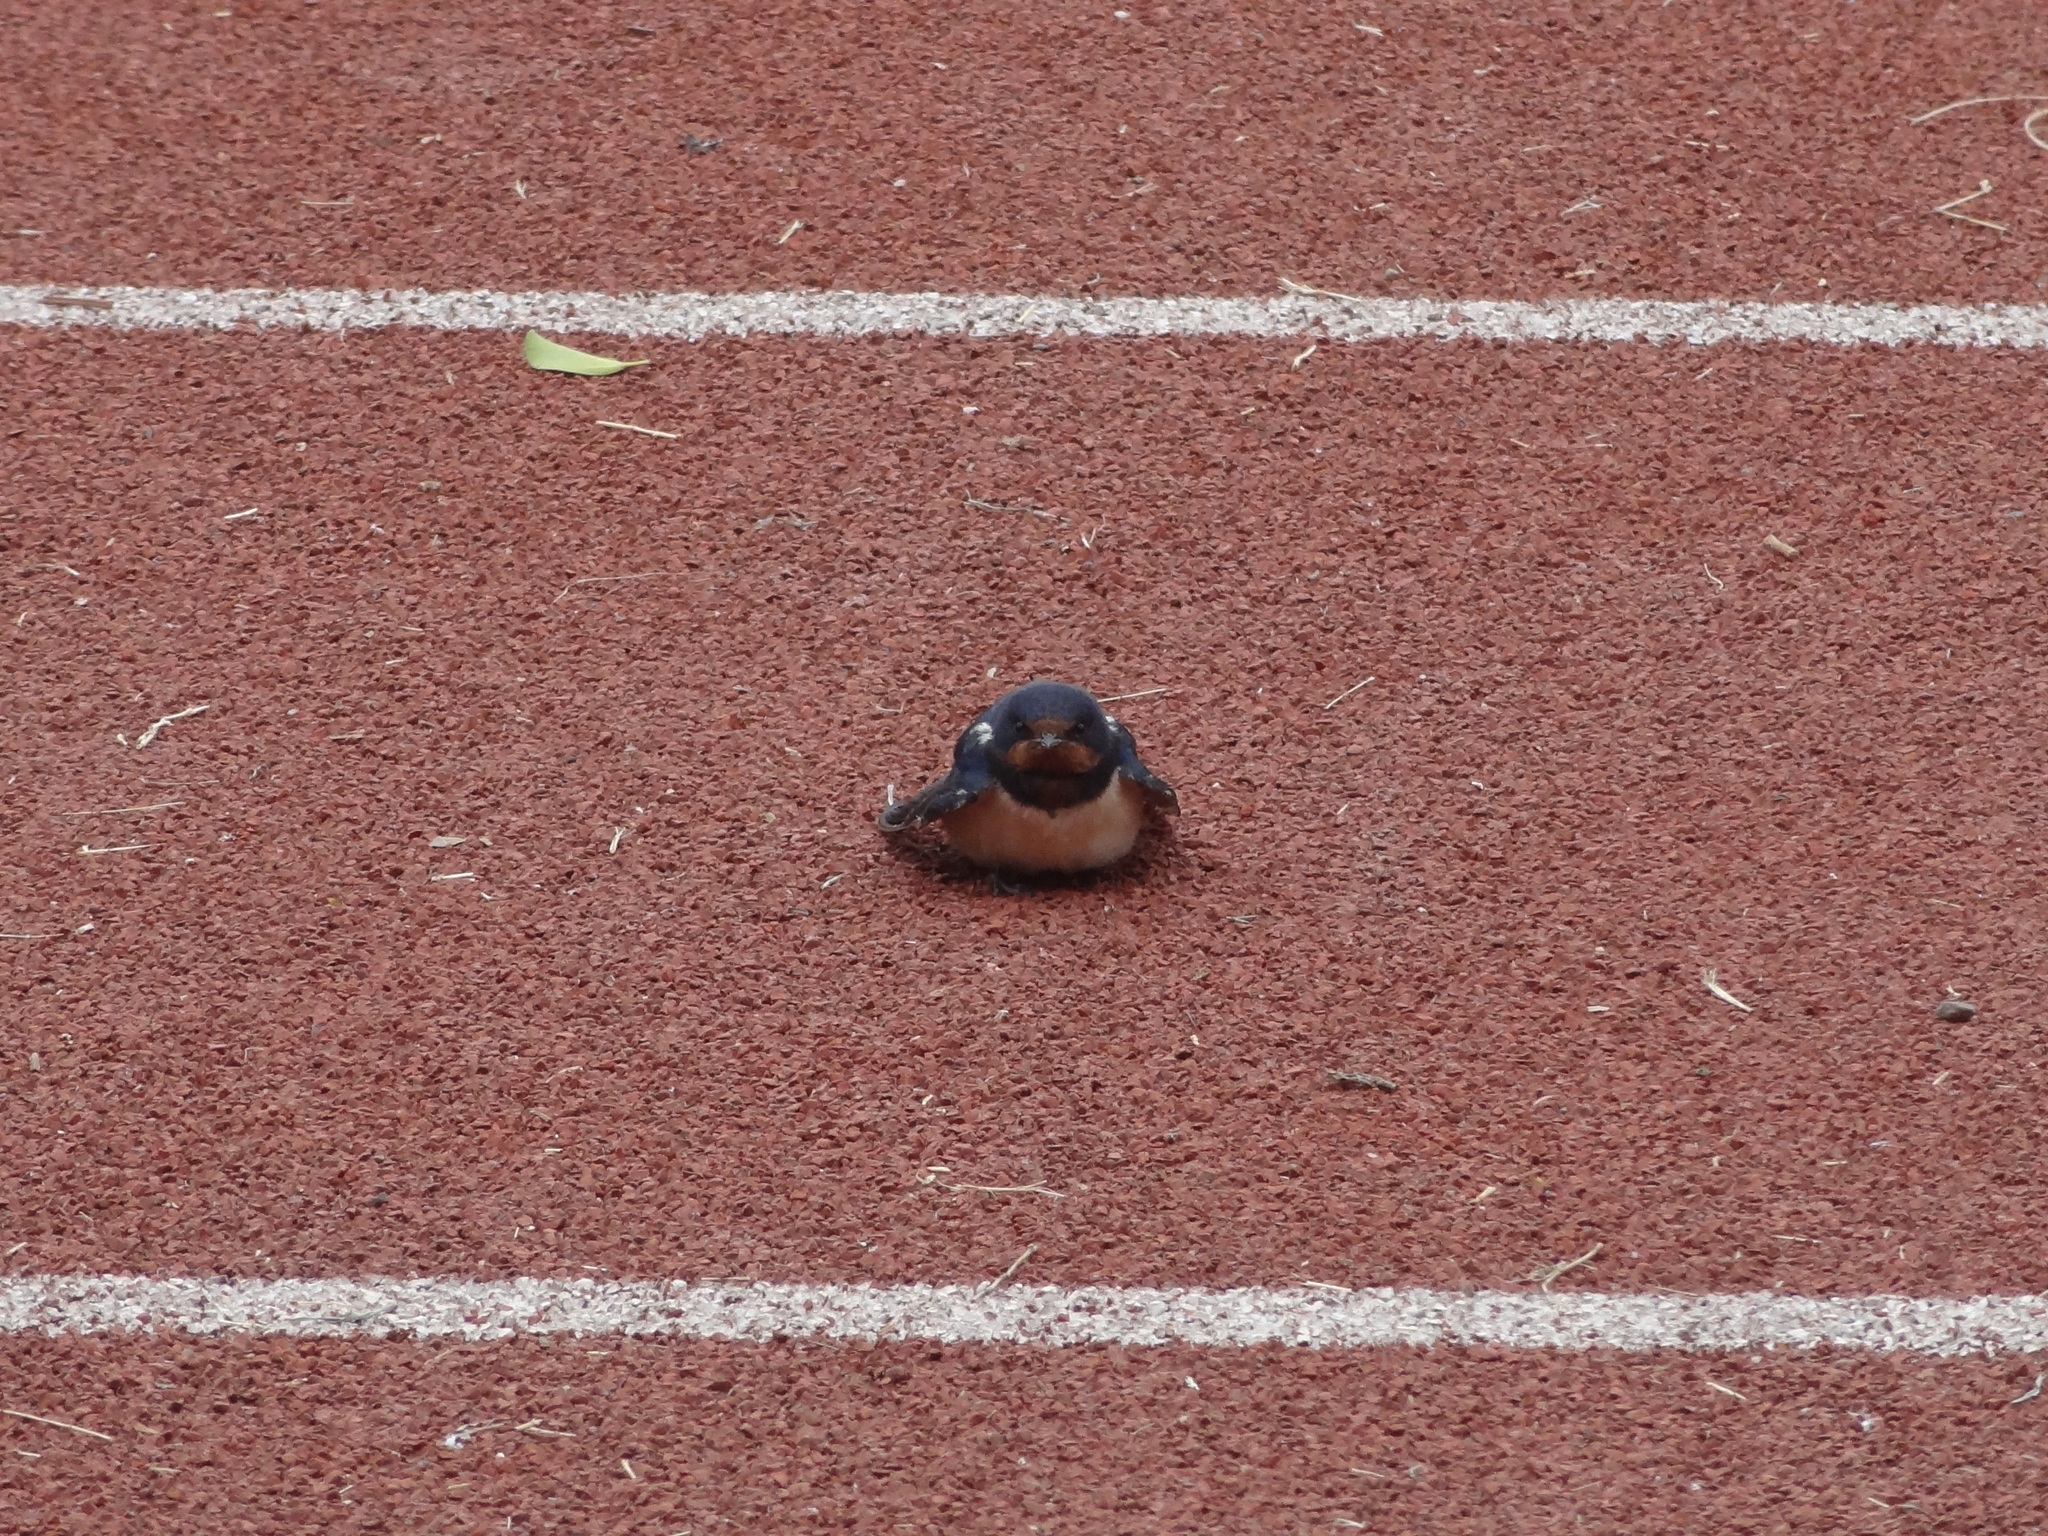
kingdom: Animalia
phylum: Chordata
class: Aves
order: Passeriformes
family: Hirundinidae
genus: Hirundo
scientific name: Hirundo rustica
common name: Barn swallow
